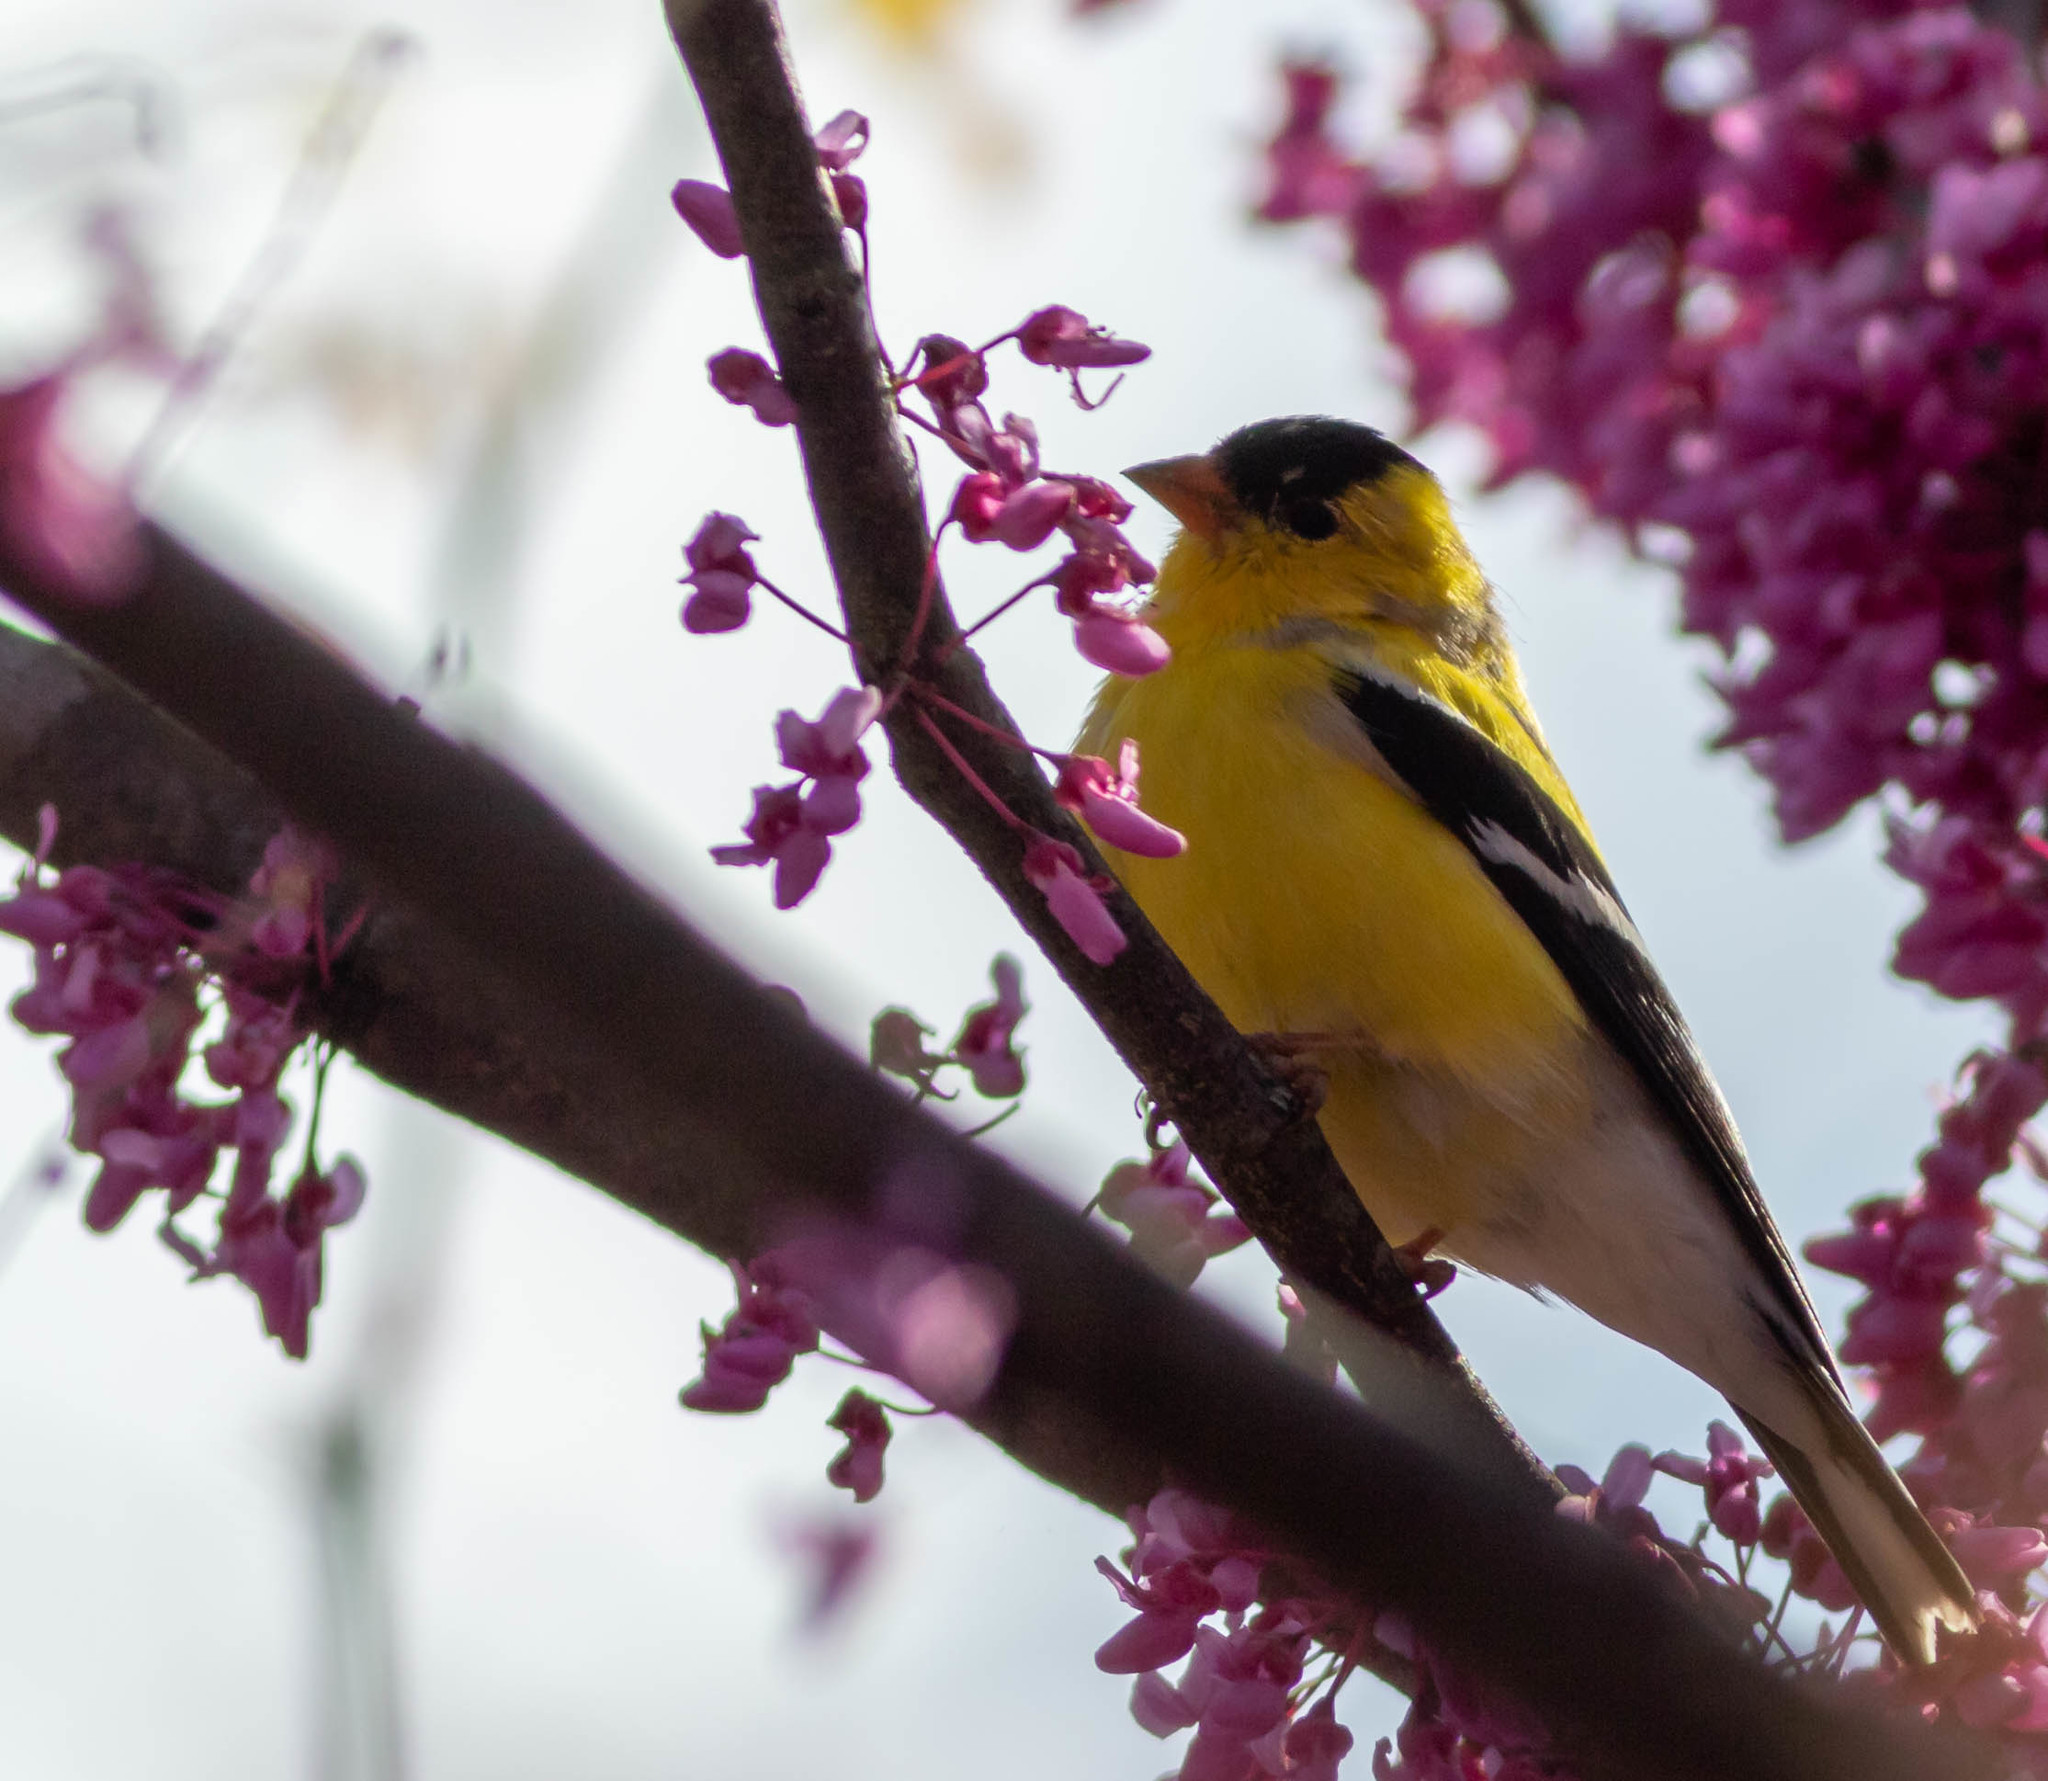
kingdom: Animalia
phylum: Chordata
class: Aves
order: Passeriformes
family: Fringillidae
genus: Spinus
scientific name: Spinus tristis
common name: American goldfinch
